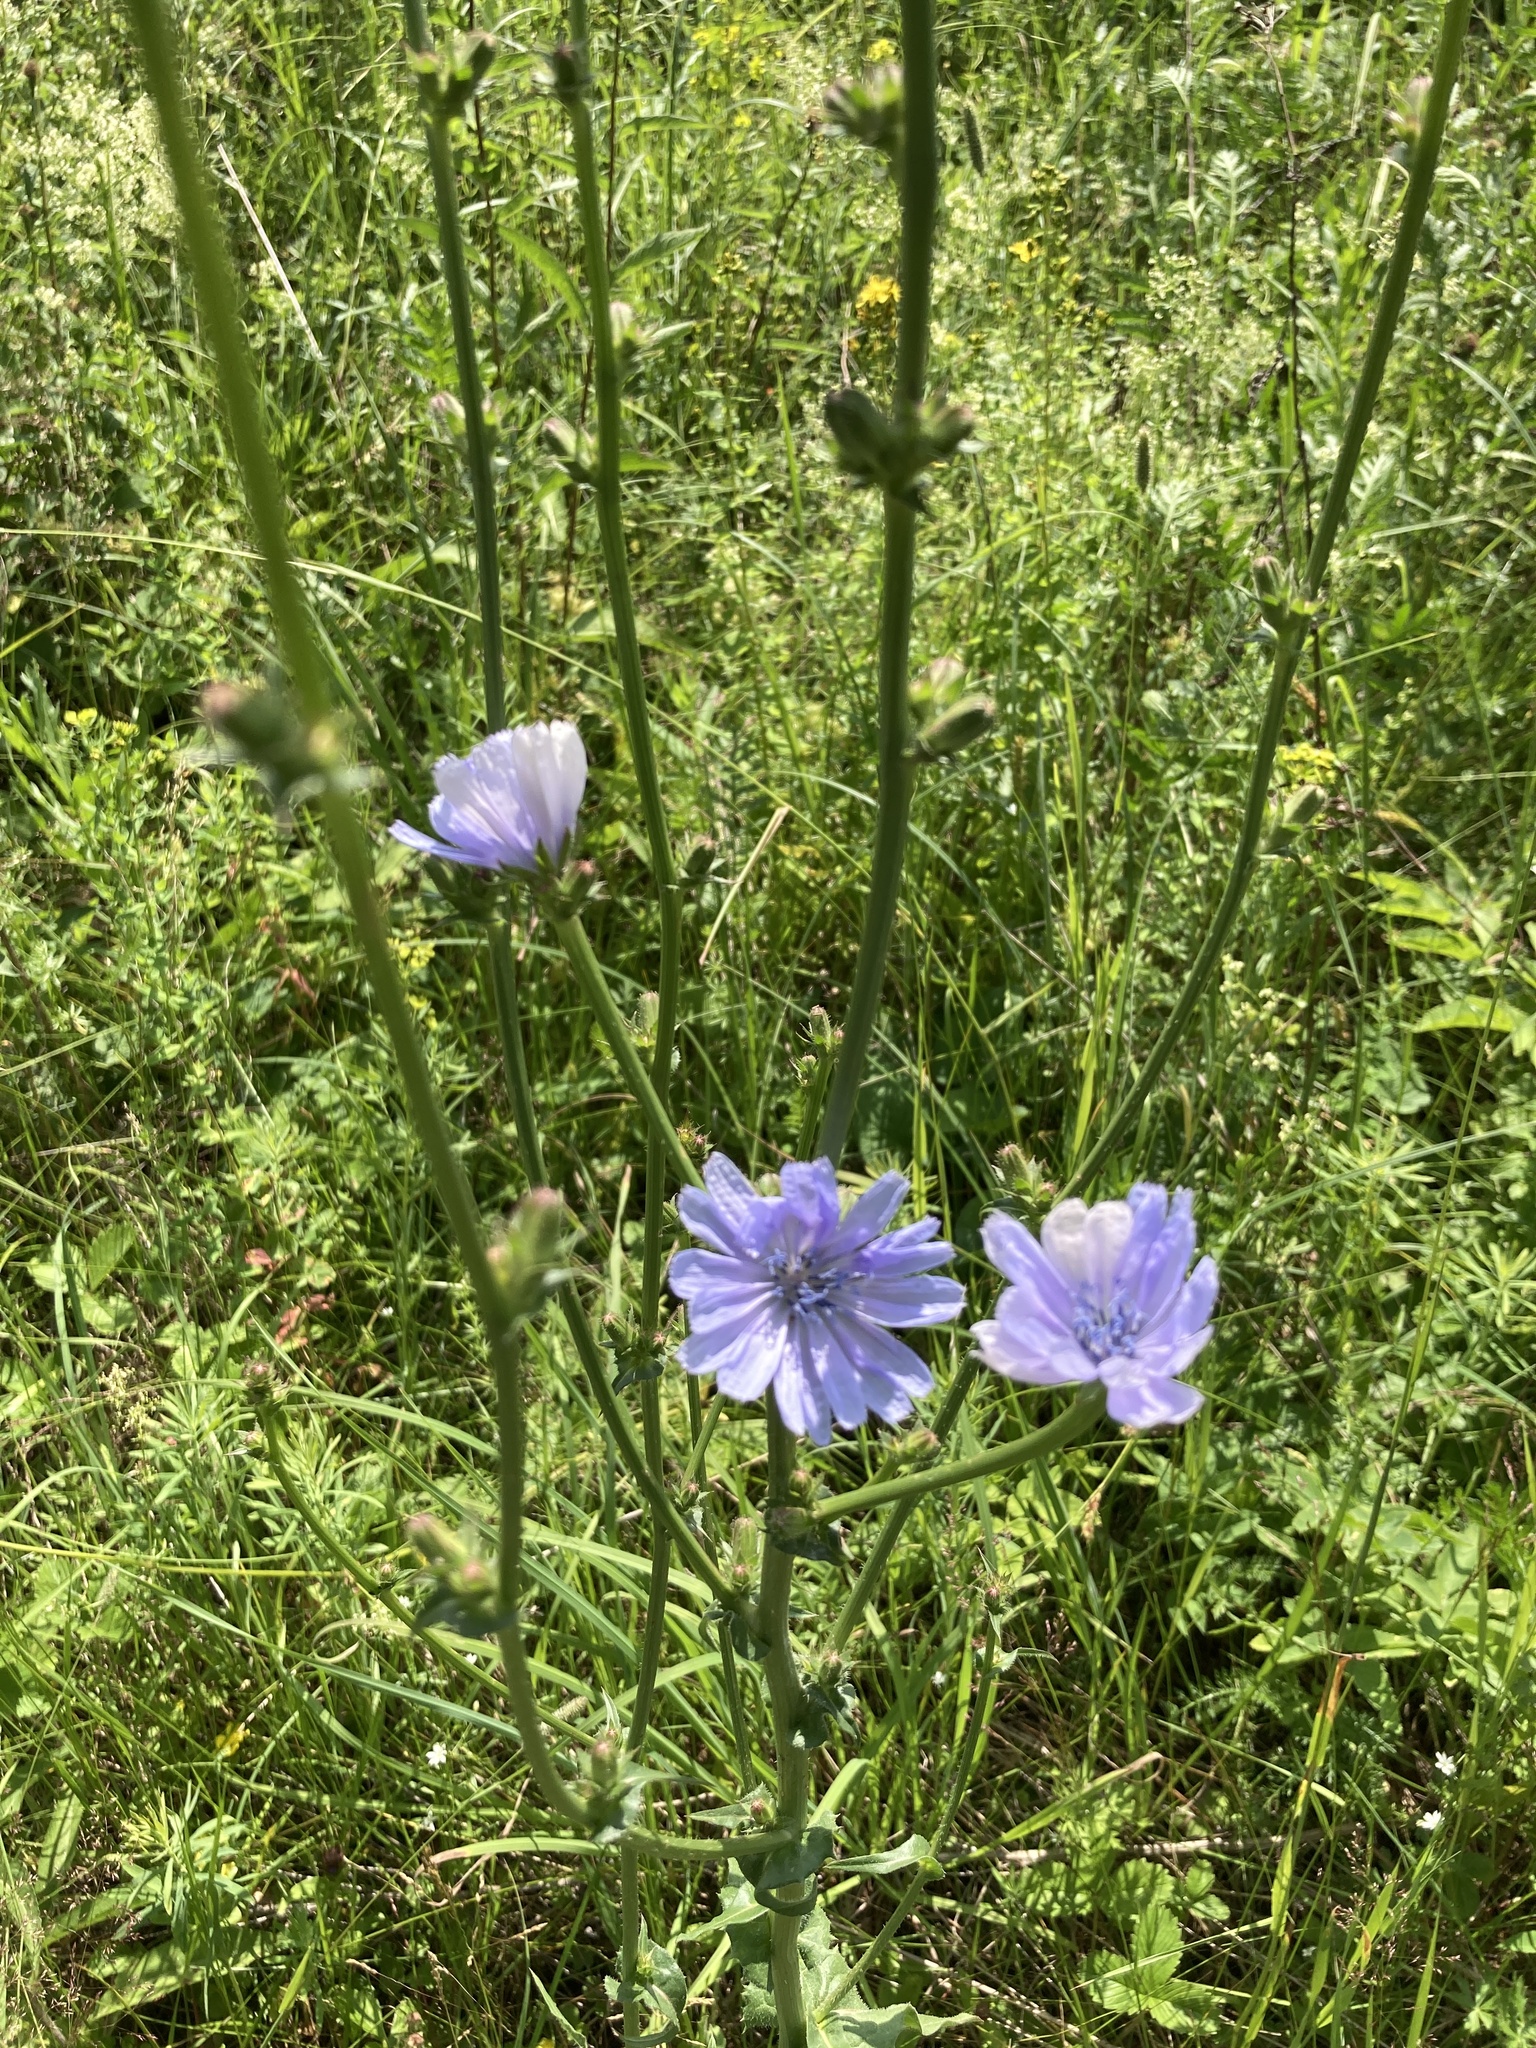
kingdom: Plantae
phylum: Tracheophyta
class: Magnoliopsida
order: Asterales
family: Asteraceae
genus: Cichorium
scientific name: Cichorium intybus
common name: Chicory
